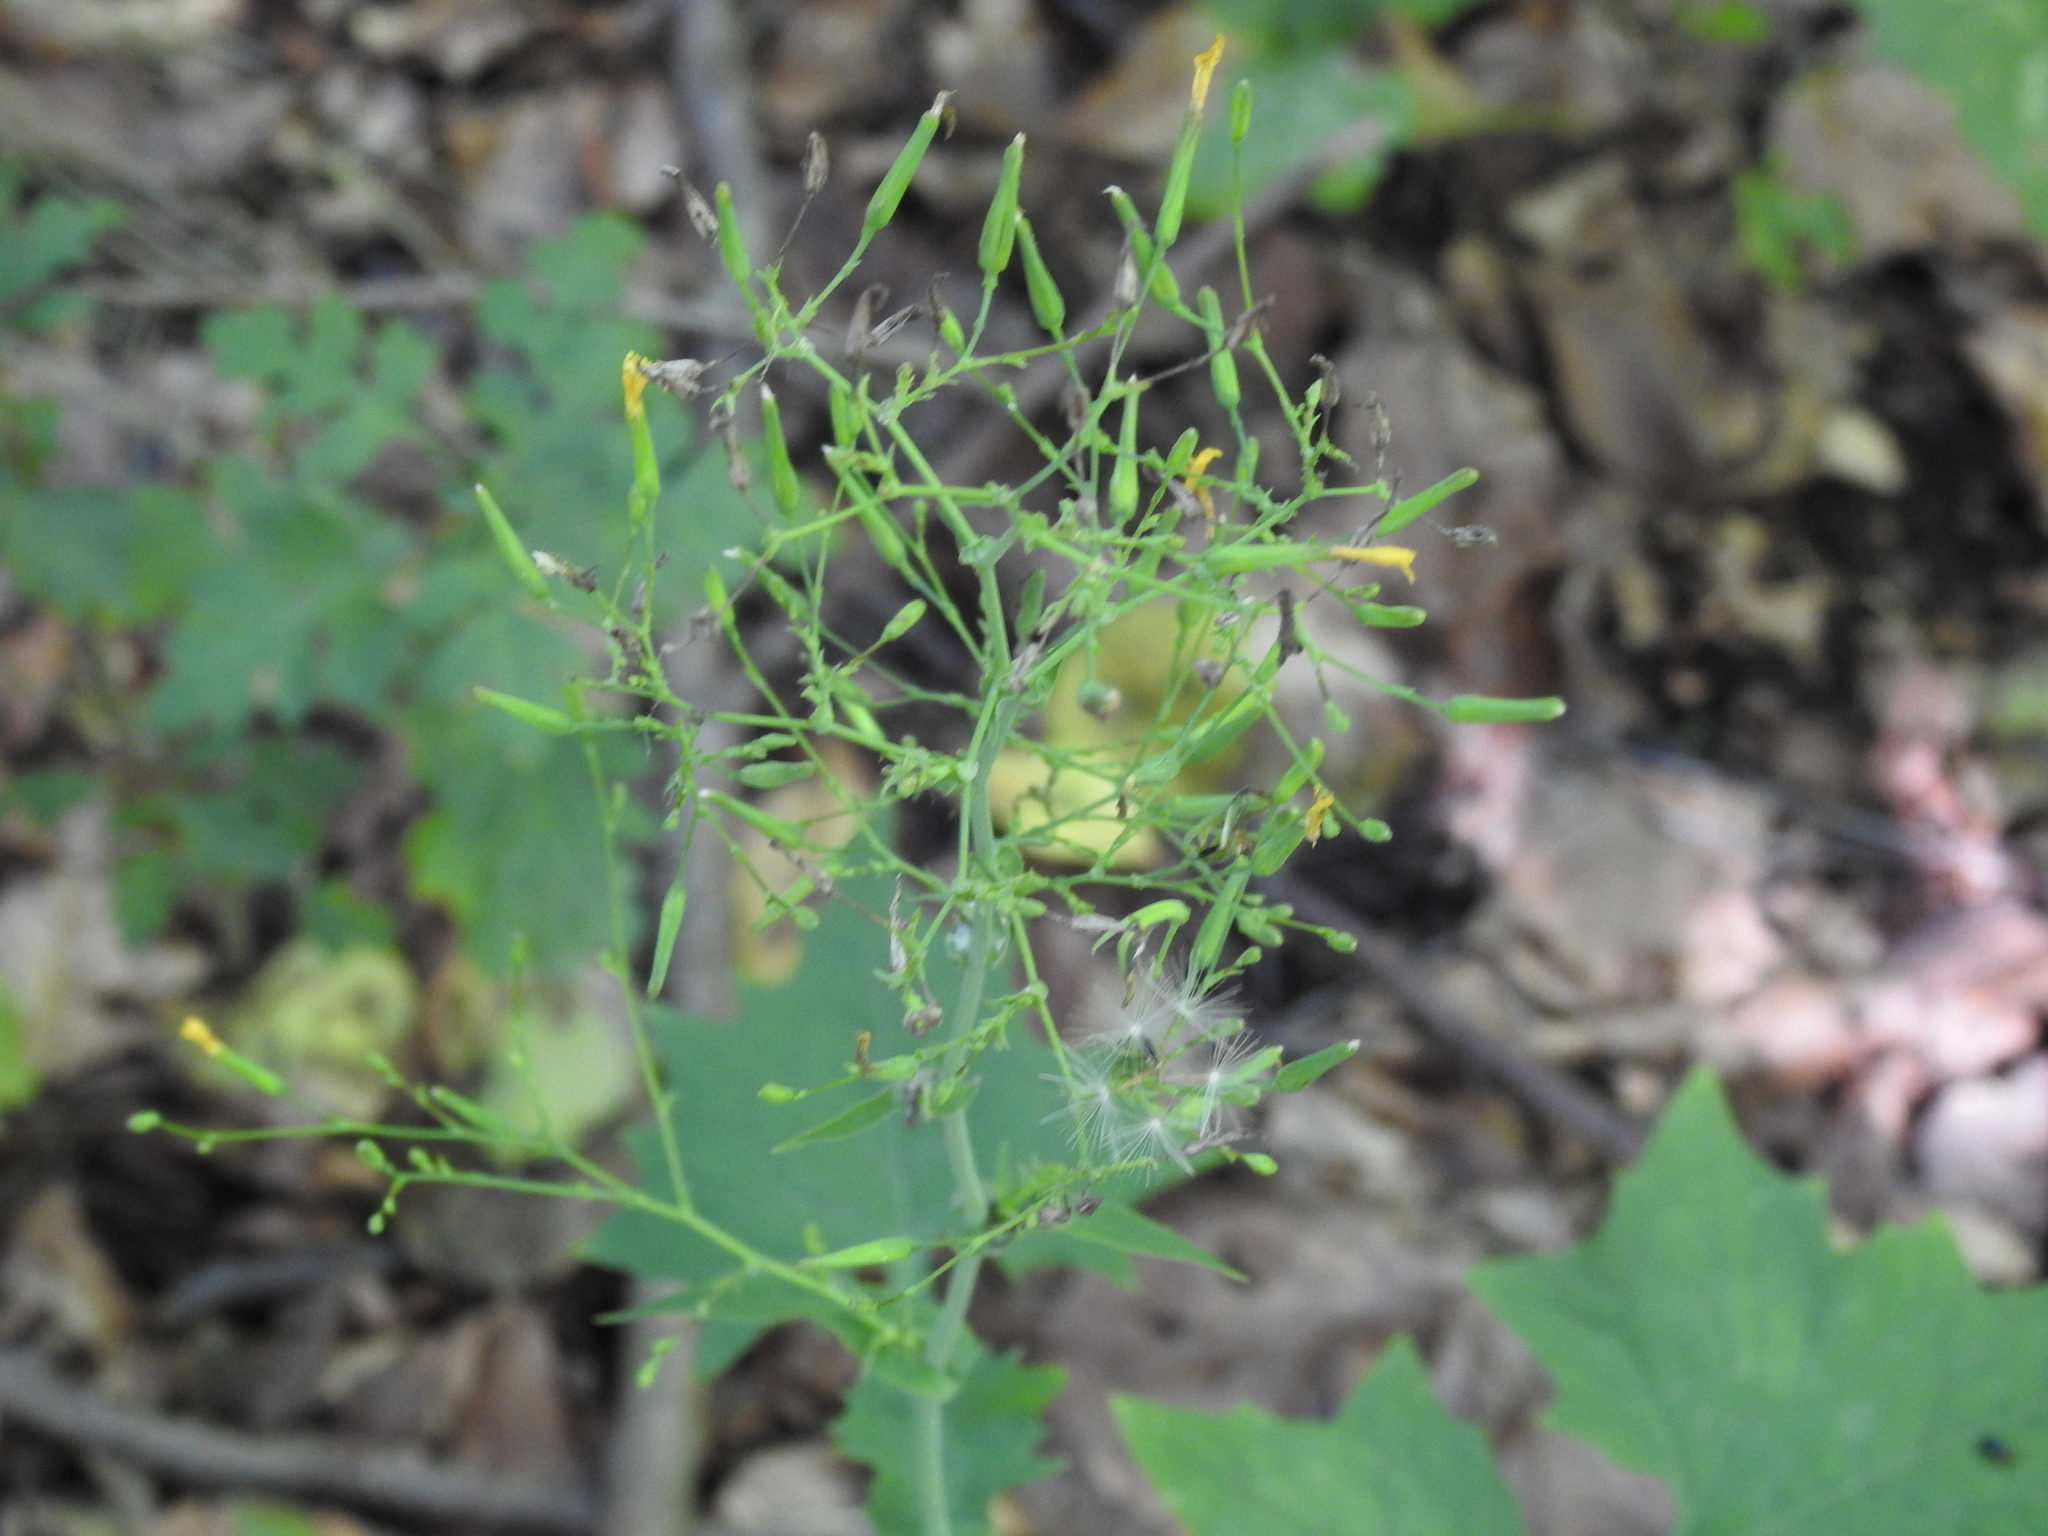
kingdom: Plantae
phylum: Tracheophyta
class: Magnoliopsida
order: Asterales
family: Asteraceae
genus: Mycelis
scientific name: Mycelis muralis
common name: Wall lettuce
